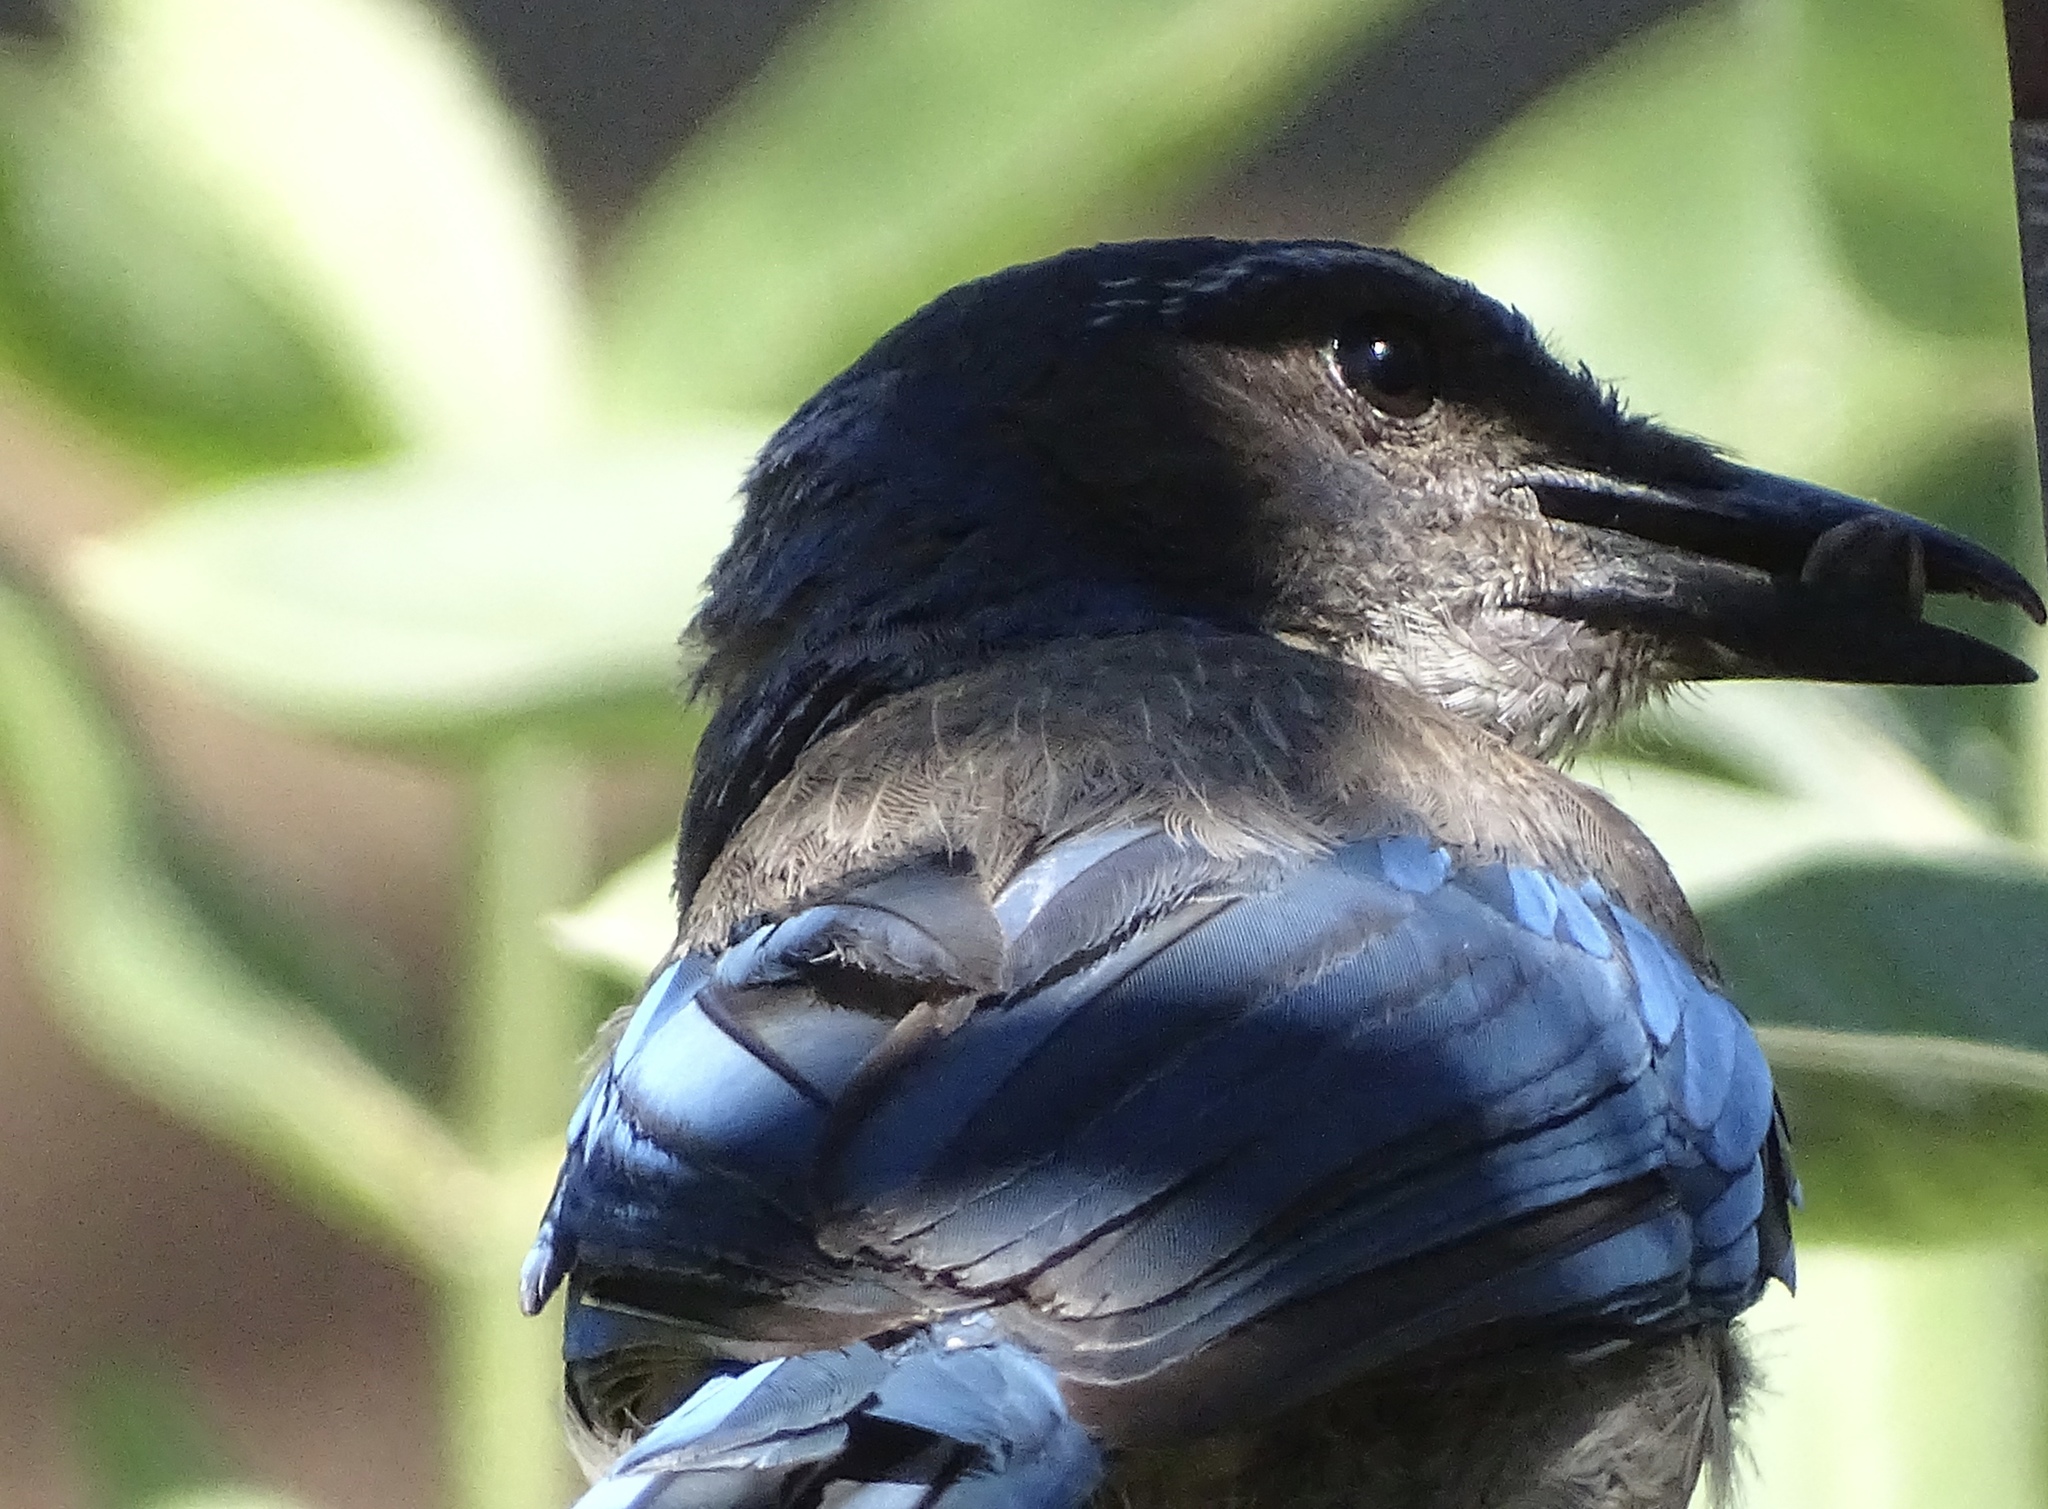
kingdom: Animalia
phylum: Chordata
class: Aves
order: Passeriformes
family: Corvidae
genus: Aphelocoma
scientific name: Aphelocoma californica
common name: California scrub-jay
